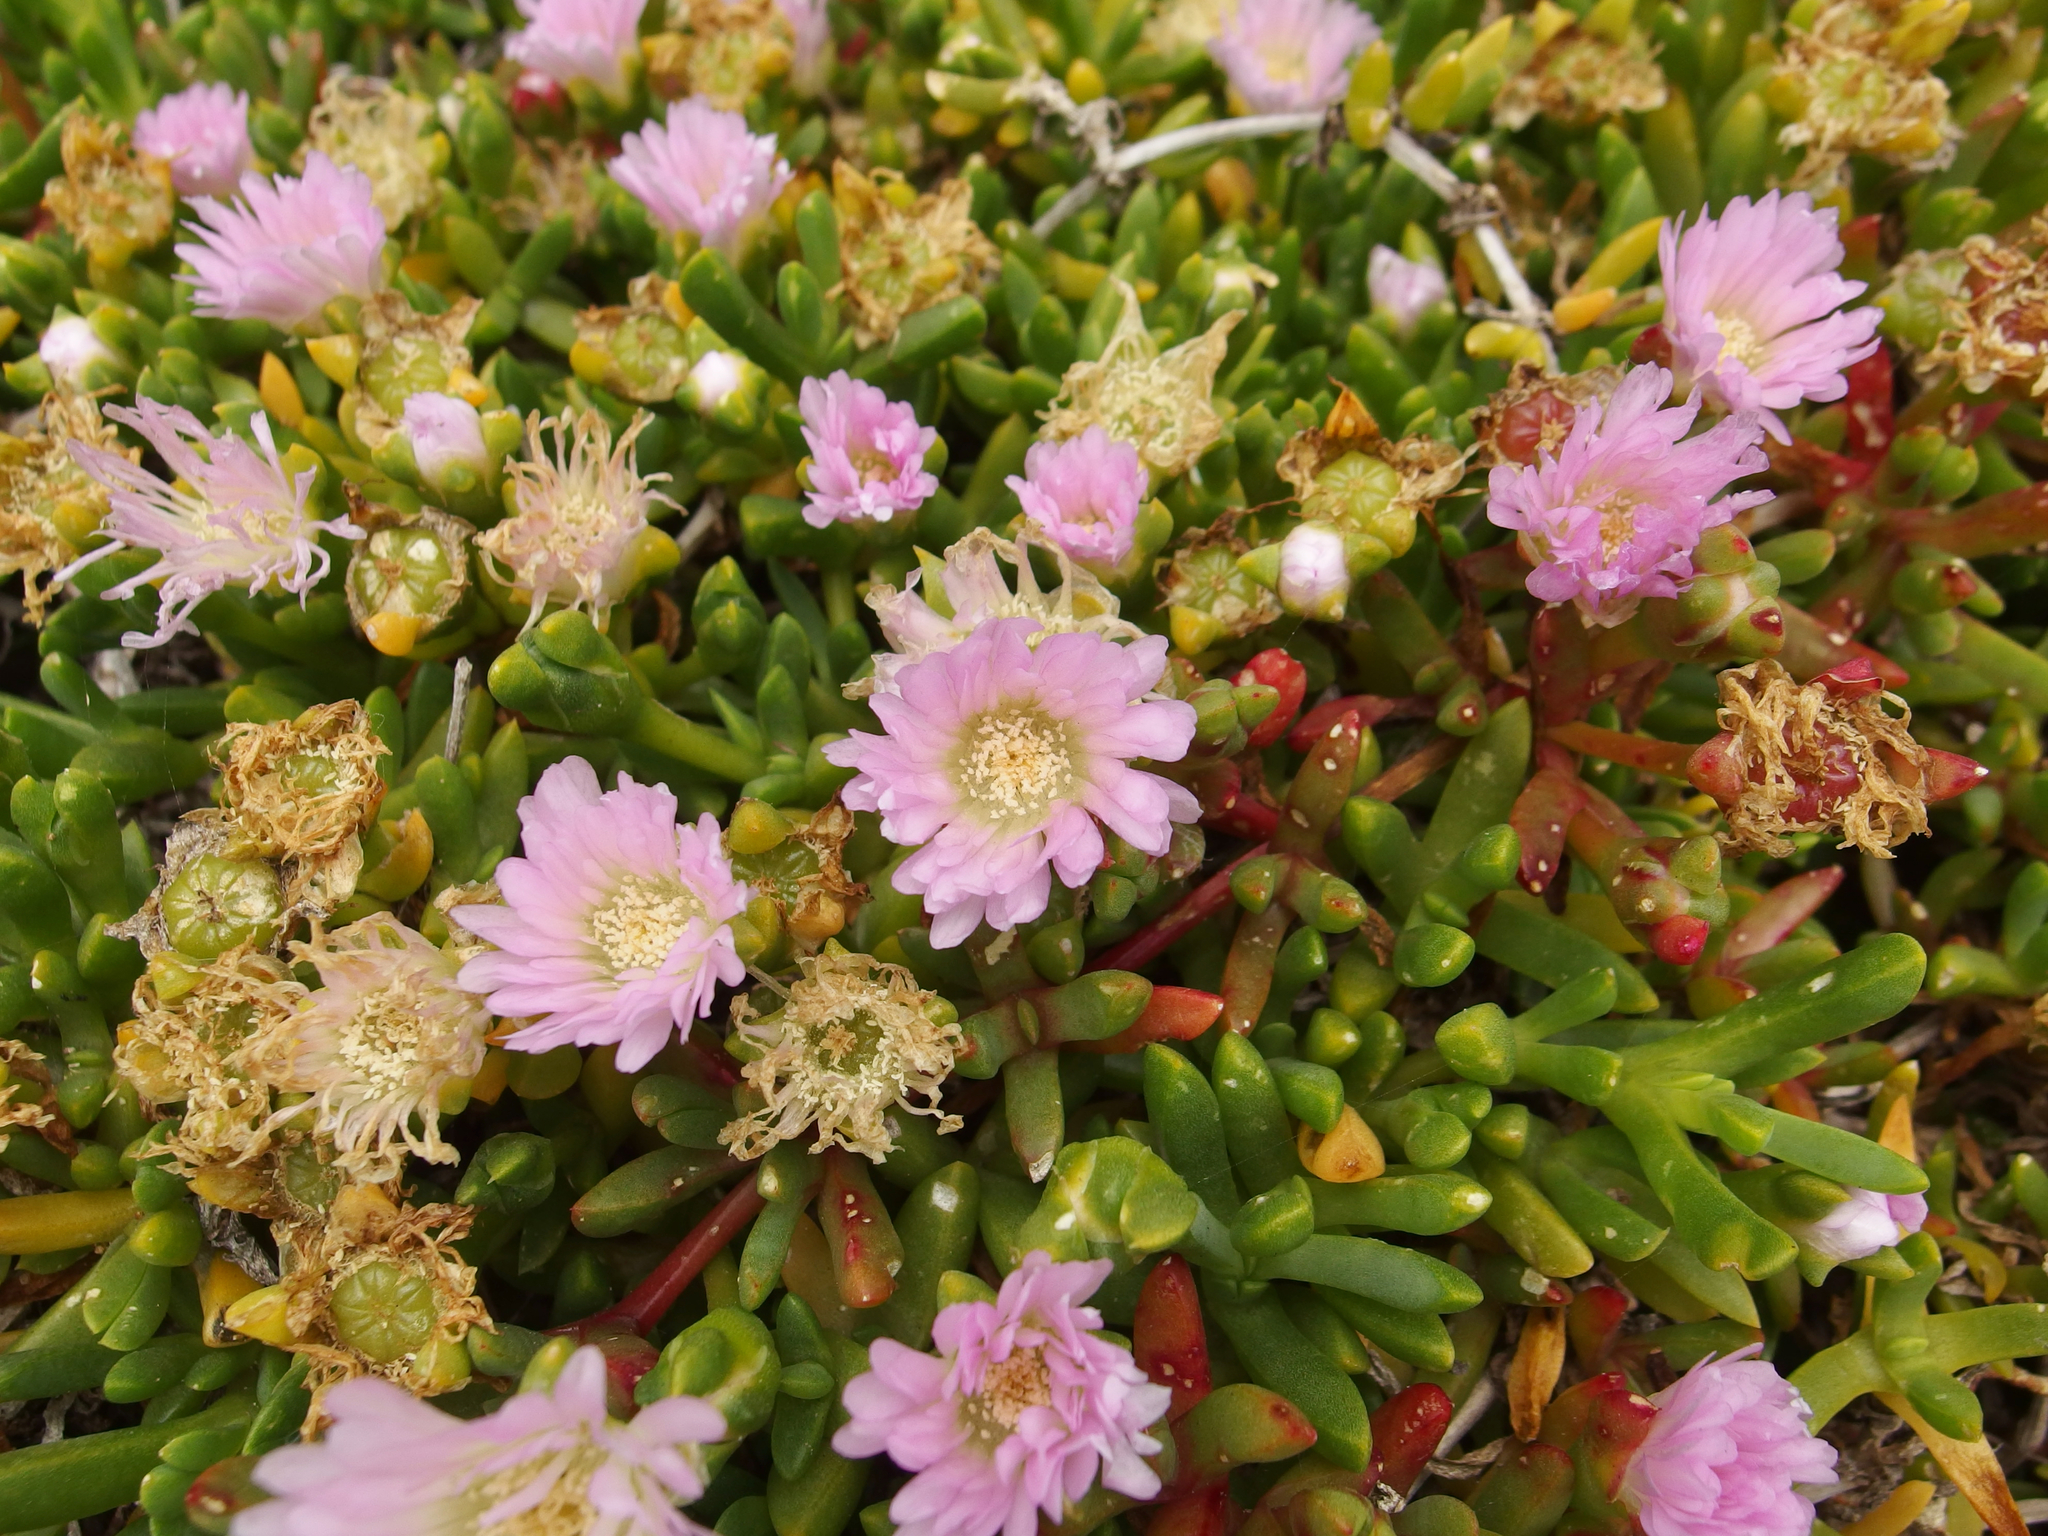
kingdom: Plantae
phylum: Tracheophyta
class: Magnoliopsida
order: Caryophyllales
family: Aizoaceae
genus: Disphyma
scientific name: Disphyma australe
